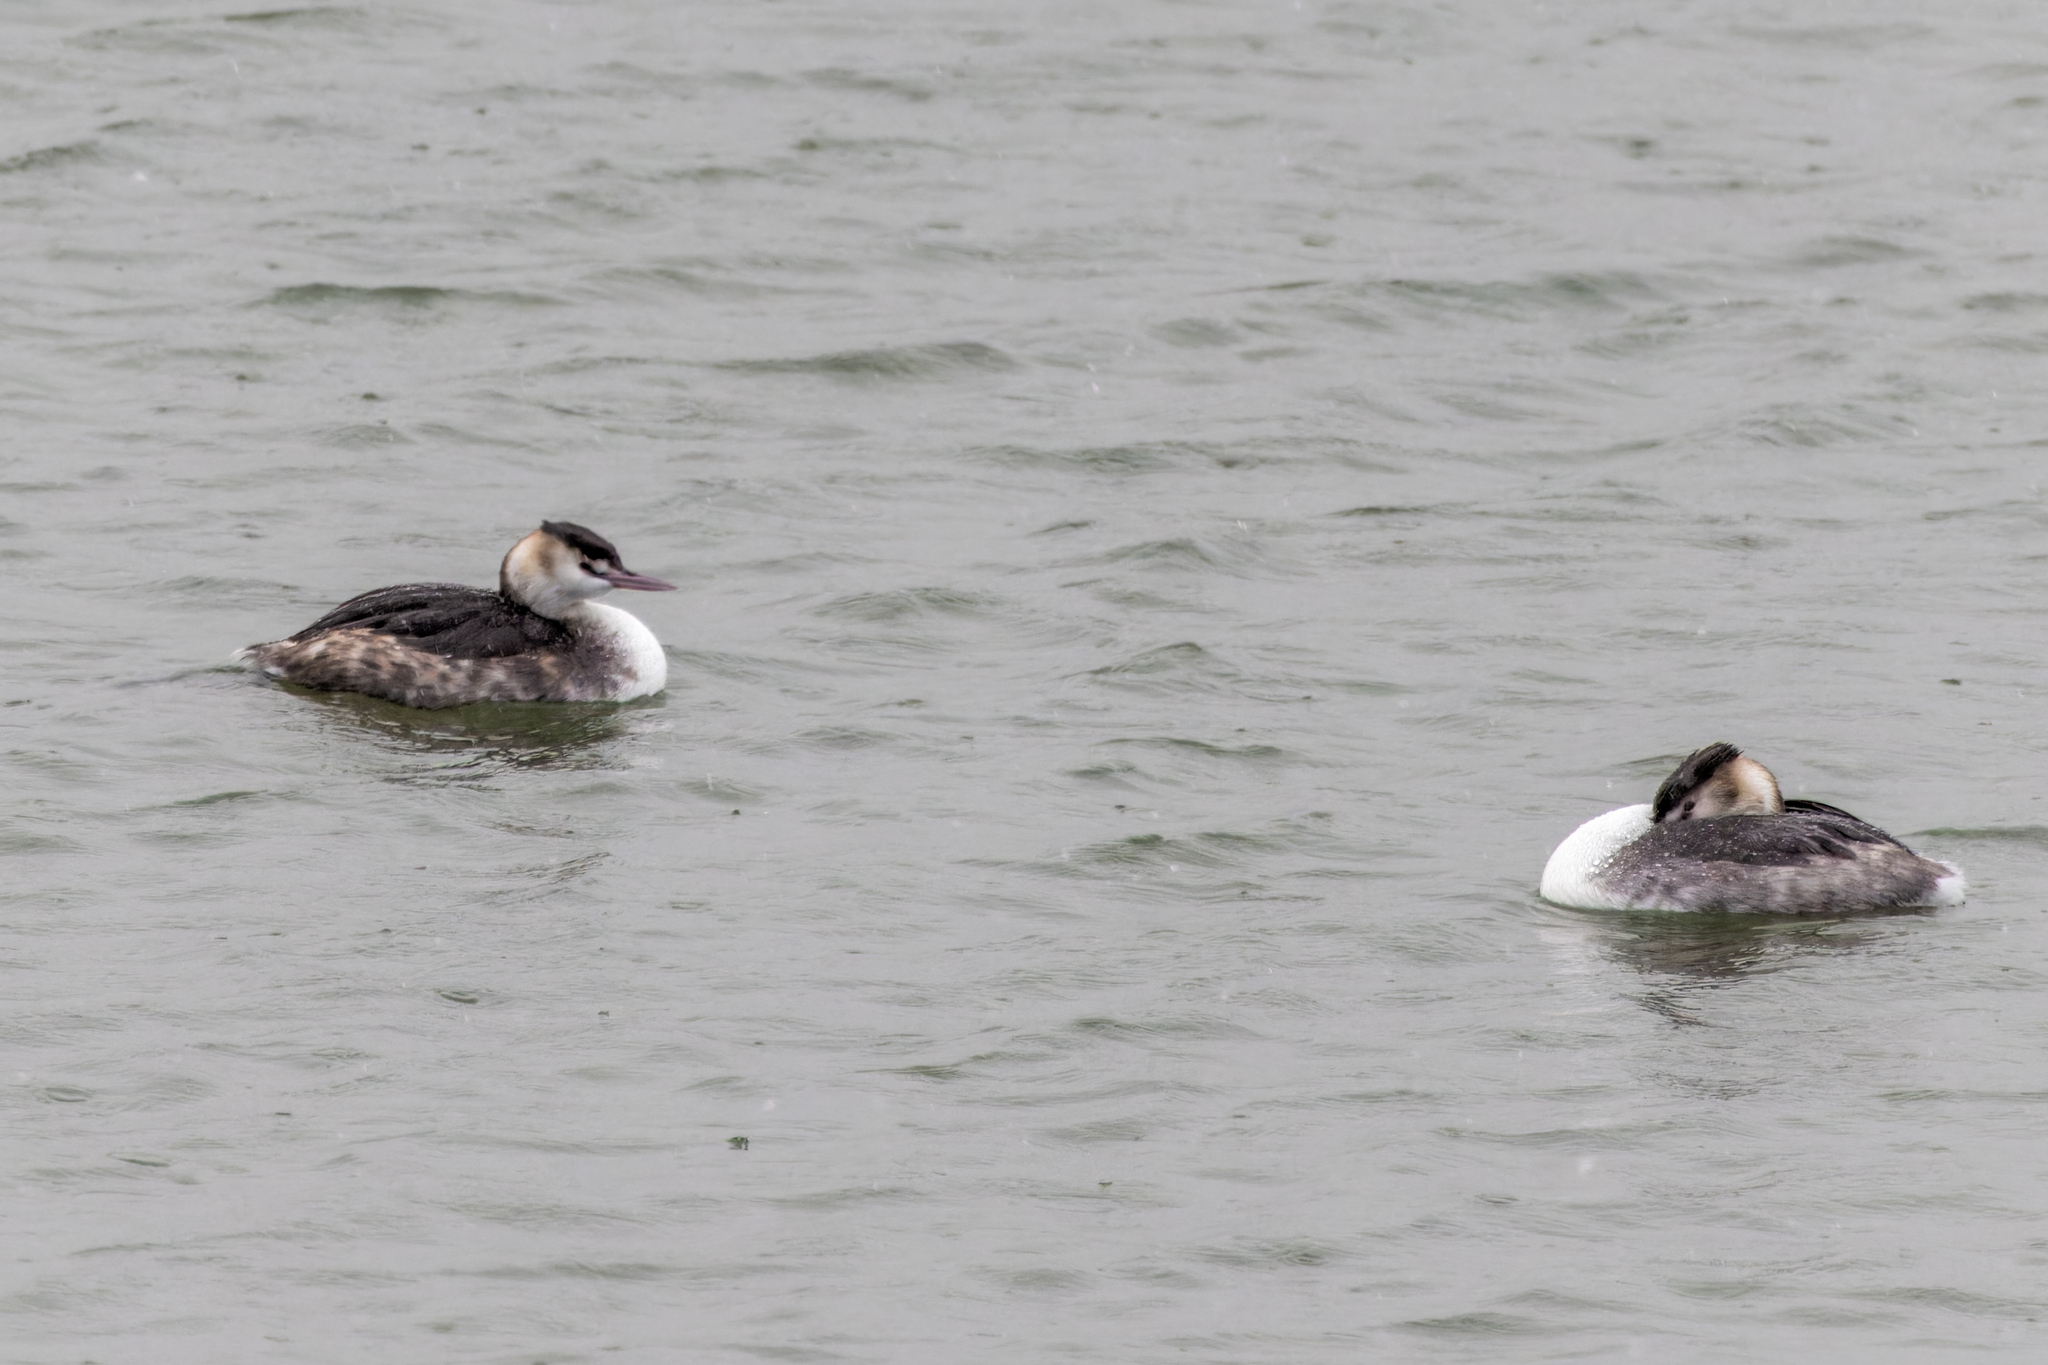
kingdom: Animalia
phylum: Chordata
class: Aves
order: Podicipediformes
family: Podicipedidae
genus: Podiceps
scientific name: Podiceps cristatus
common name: Great crested grebe
